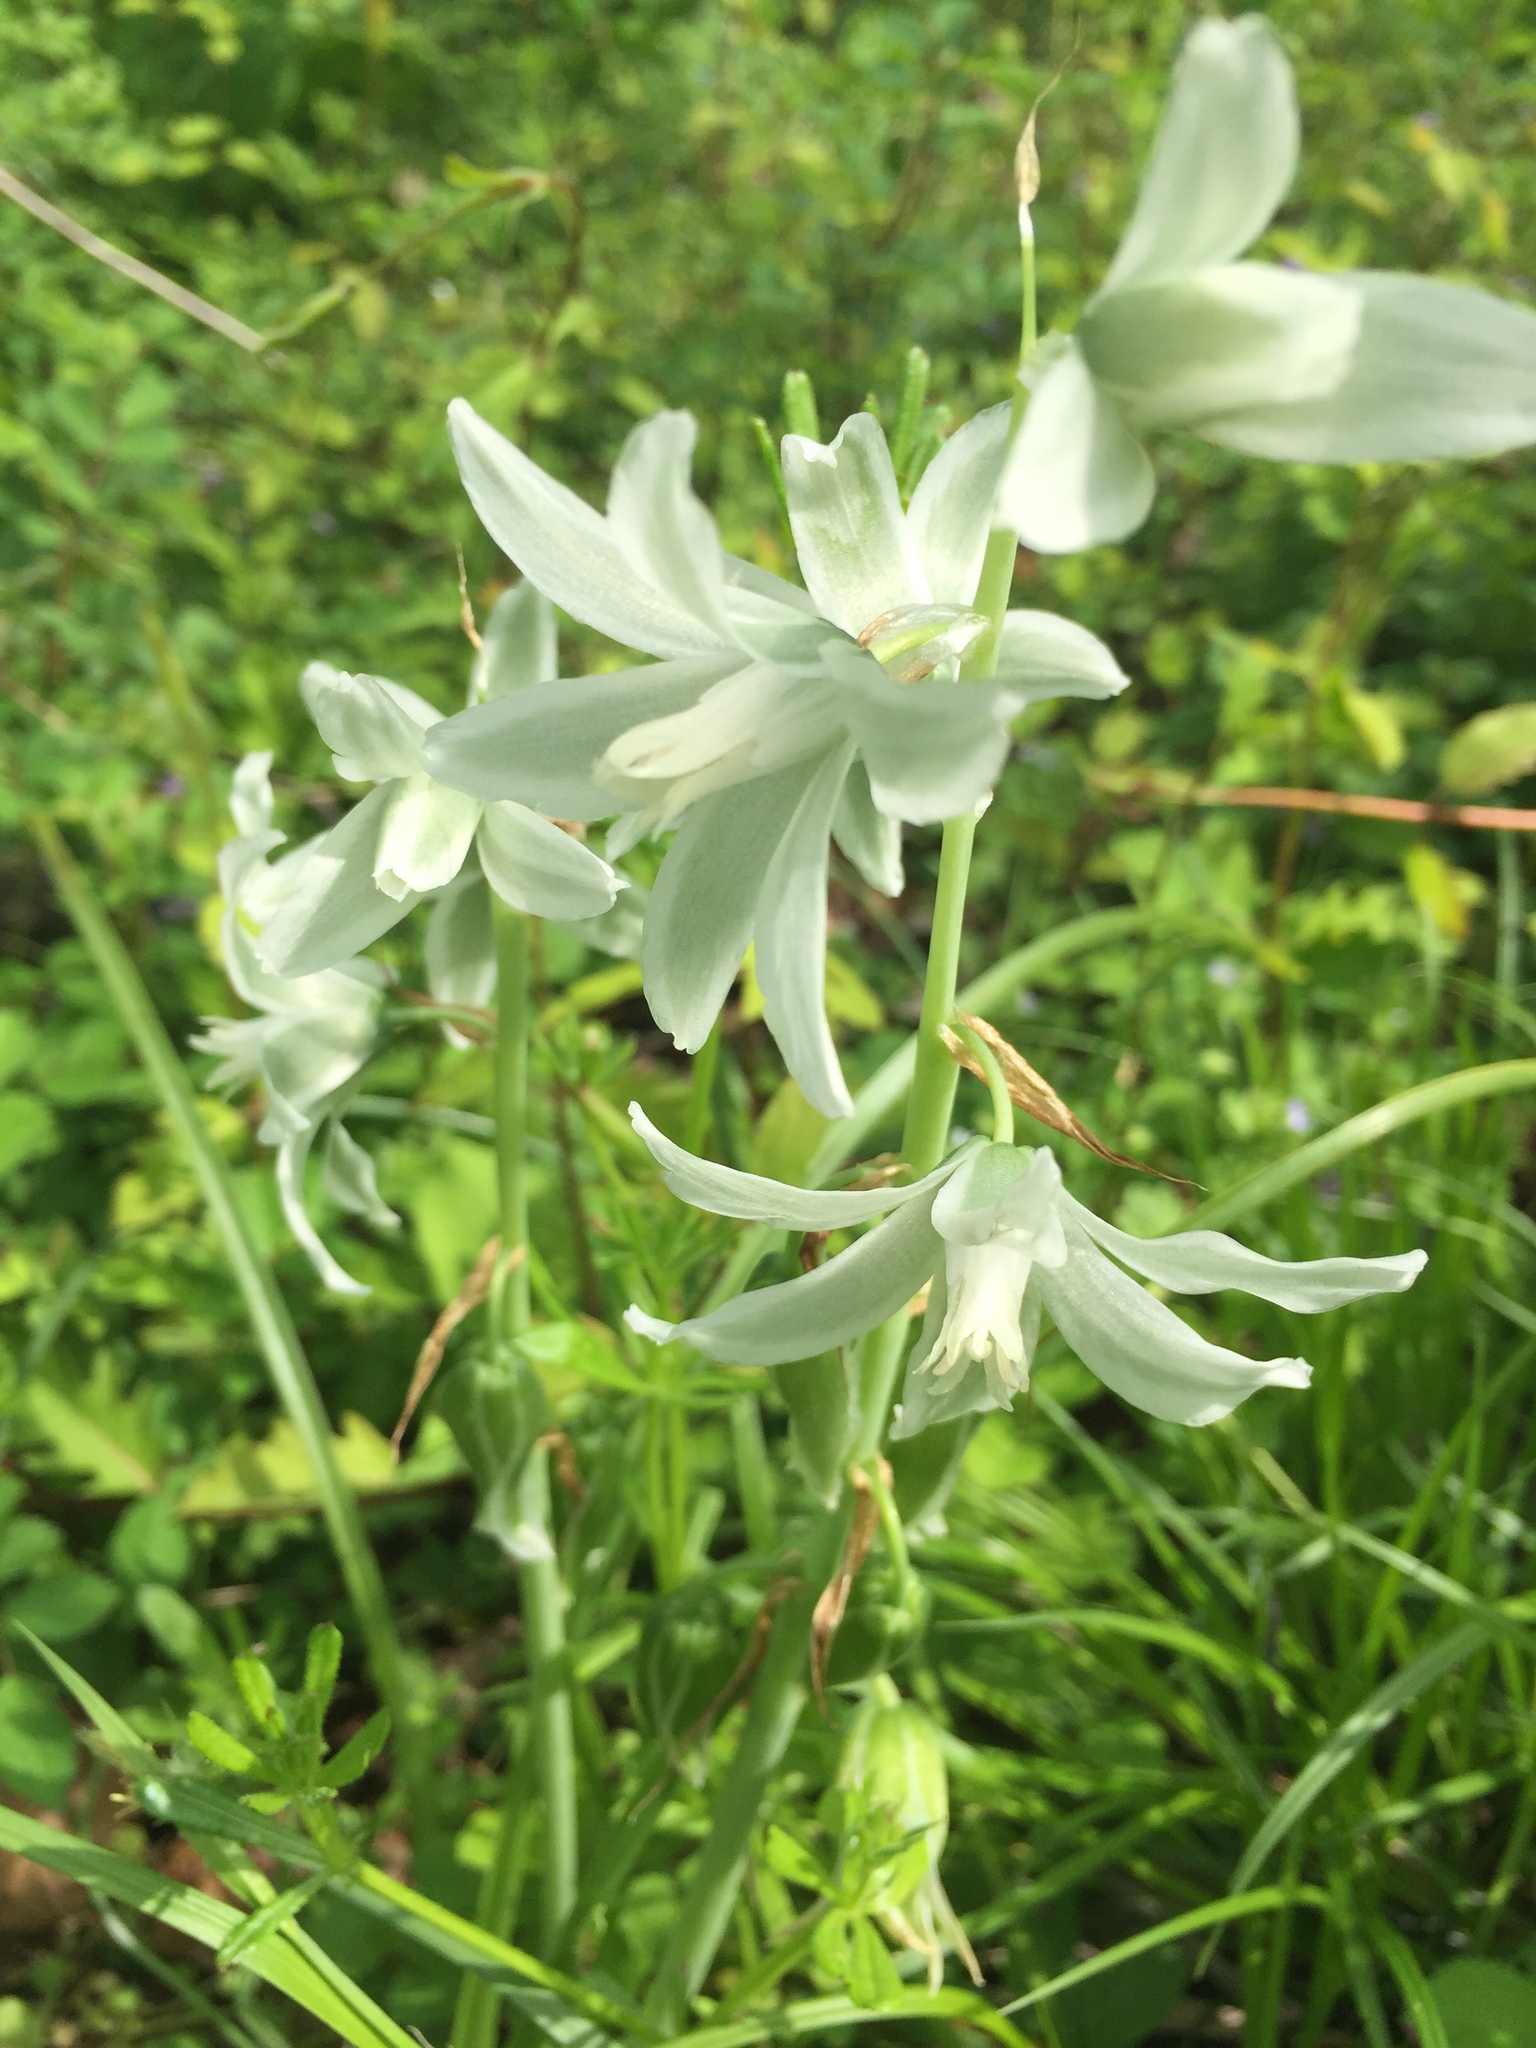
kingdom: Plantae
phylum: Tracheophyta
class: Liliopsida
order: Asparagales
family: Asparagaceae
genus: Ornithogalum
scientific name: Ornithogalum nutans
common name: Drooping star-of-bethlehem
